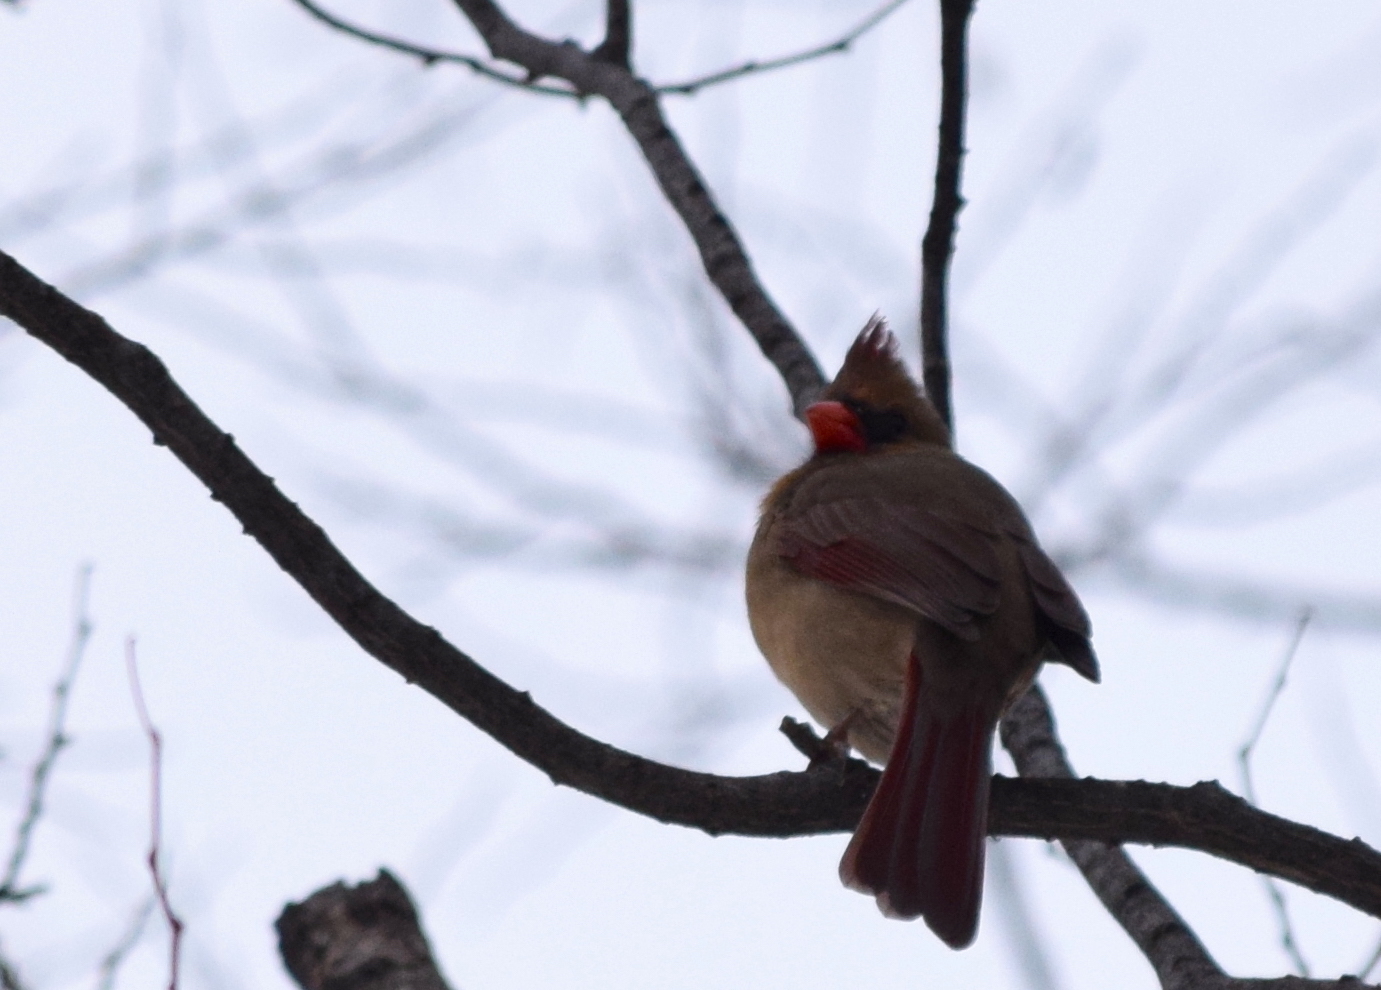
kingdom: Animalia
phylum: Chordata
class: Aves
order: Passeriformes
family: Cardinalidae
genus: Cardinalis
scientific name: Cardinalis cardinalis
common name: Northern cardinal
